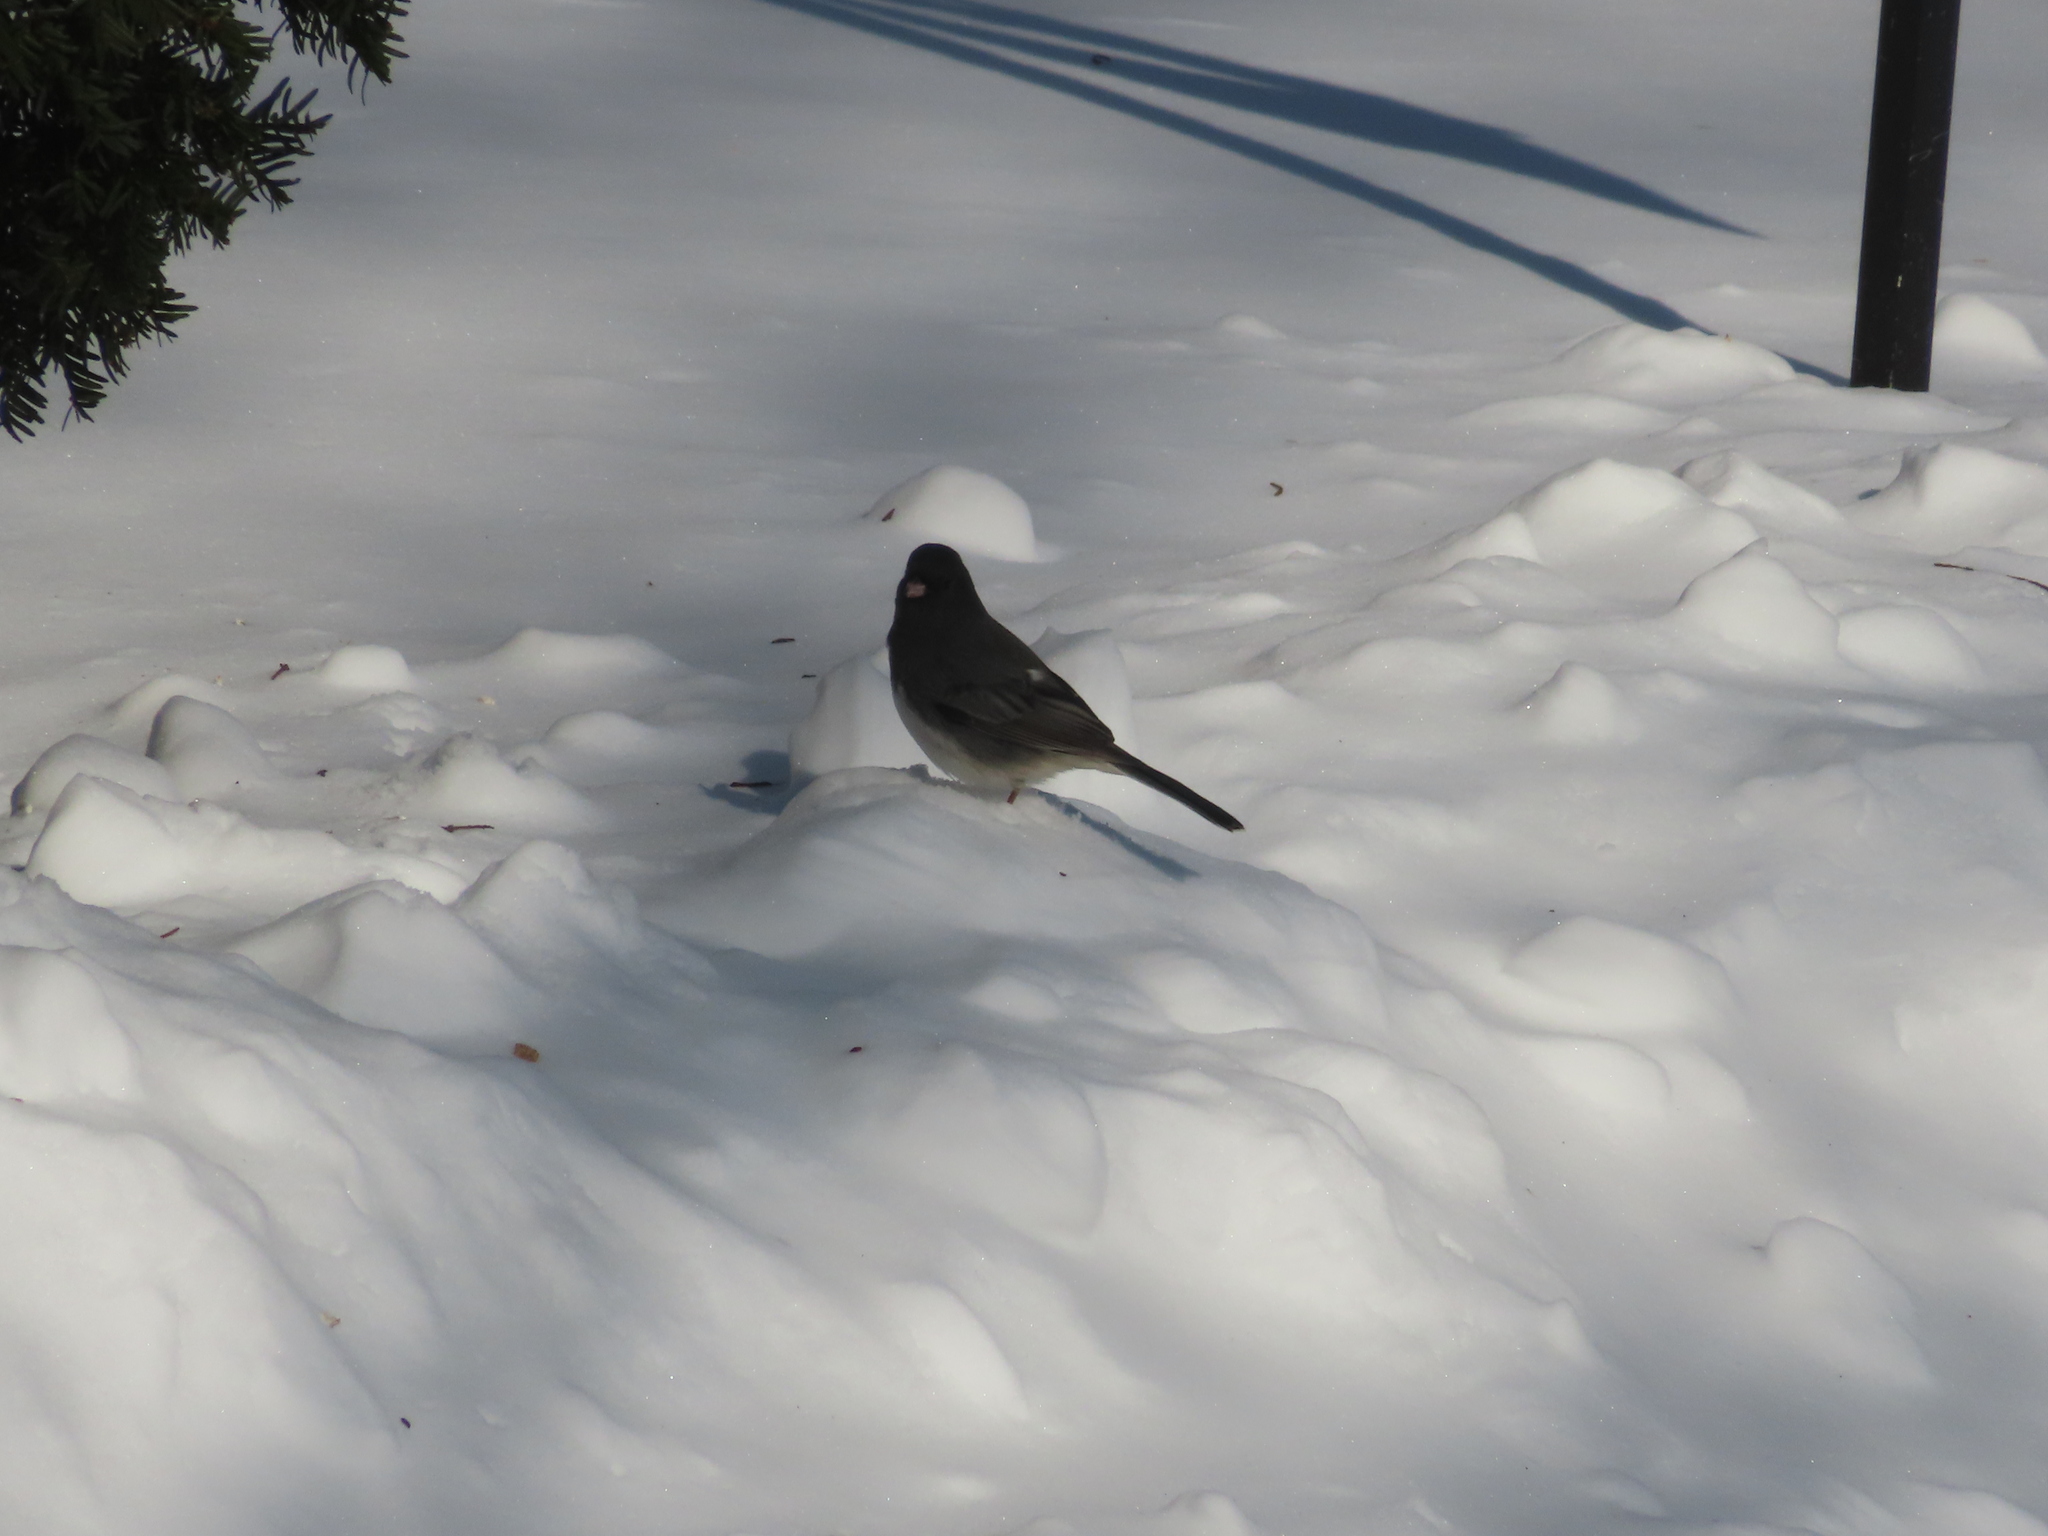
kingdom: Animalia
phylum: Chordata
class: Aves
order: Passeriformes
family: Passerellidae
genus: Junco
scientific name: Junco hyemalis
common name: Dark-eyed junco
